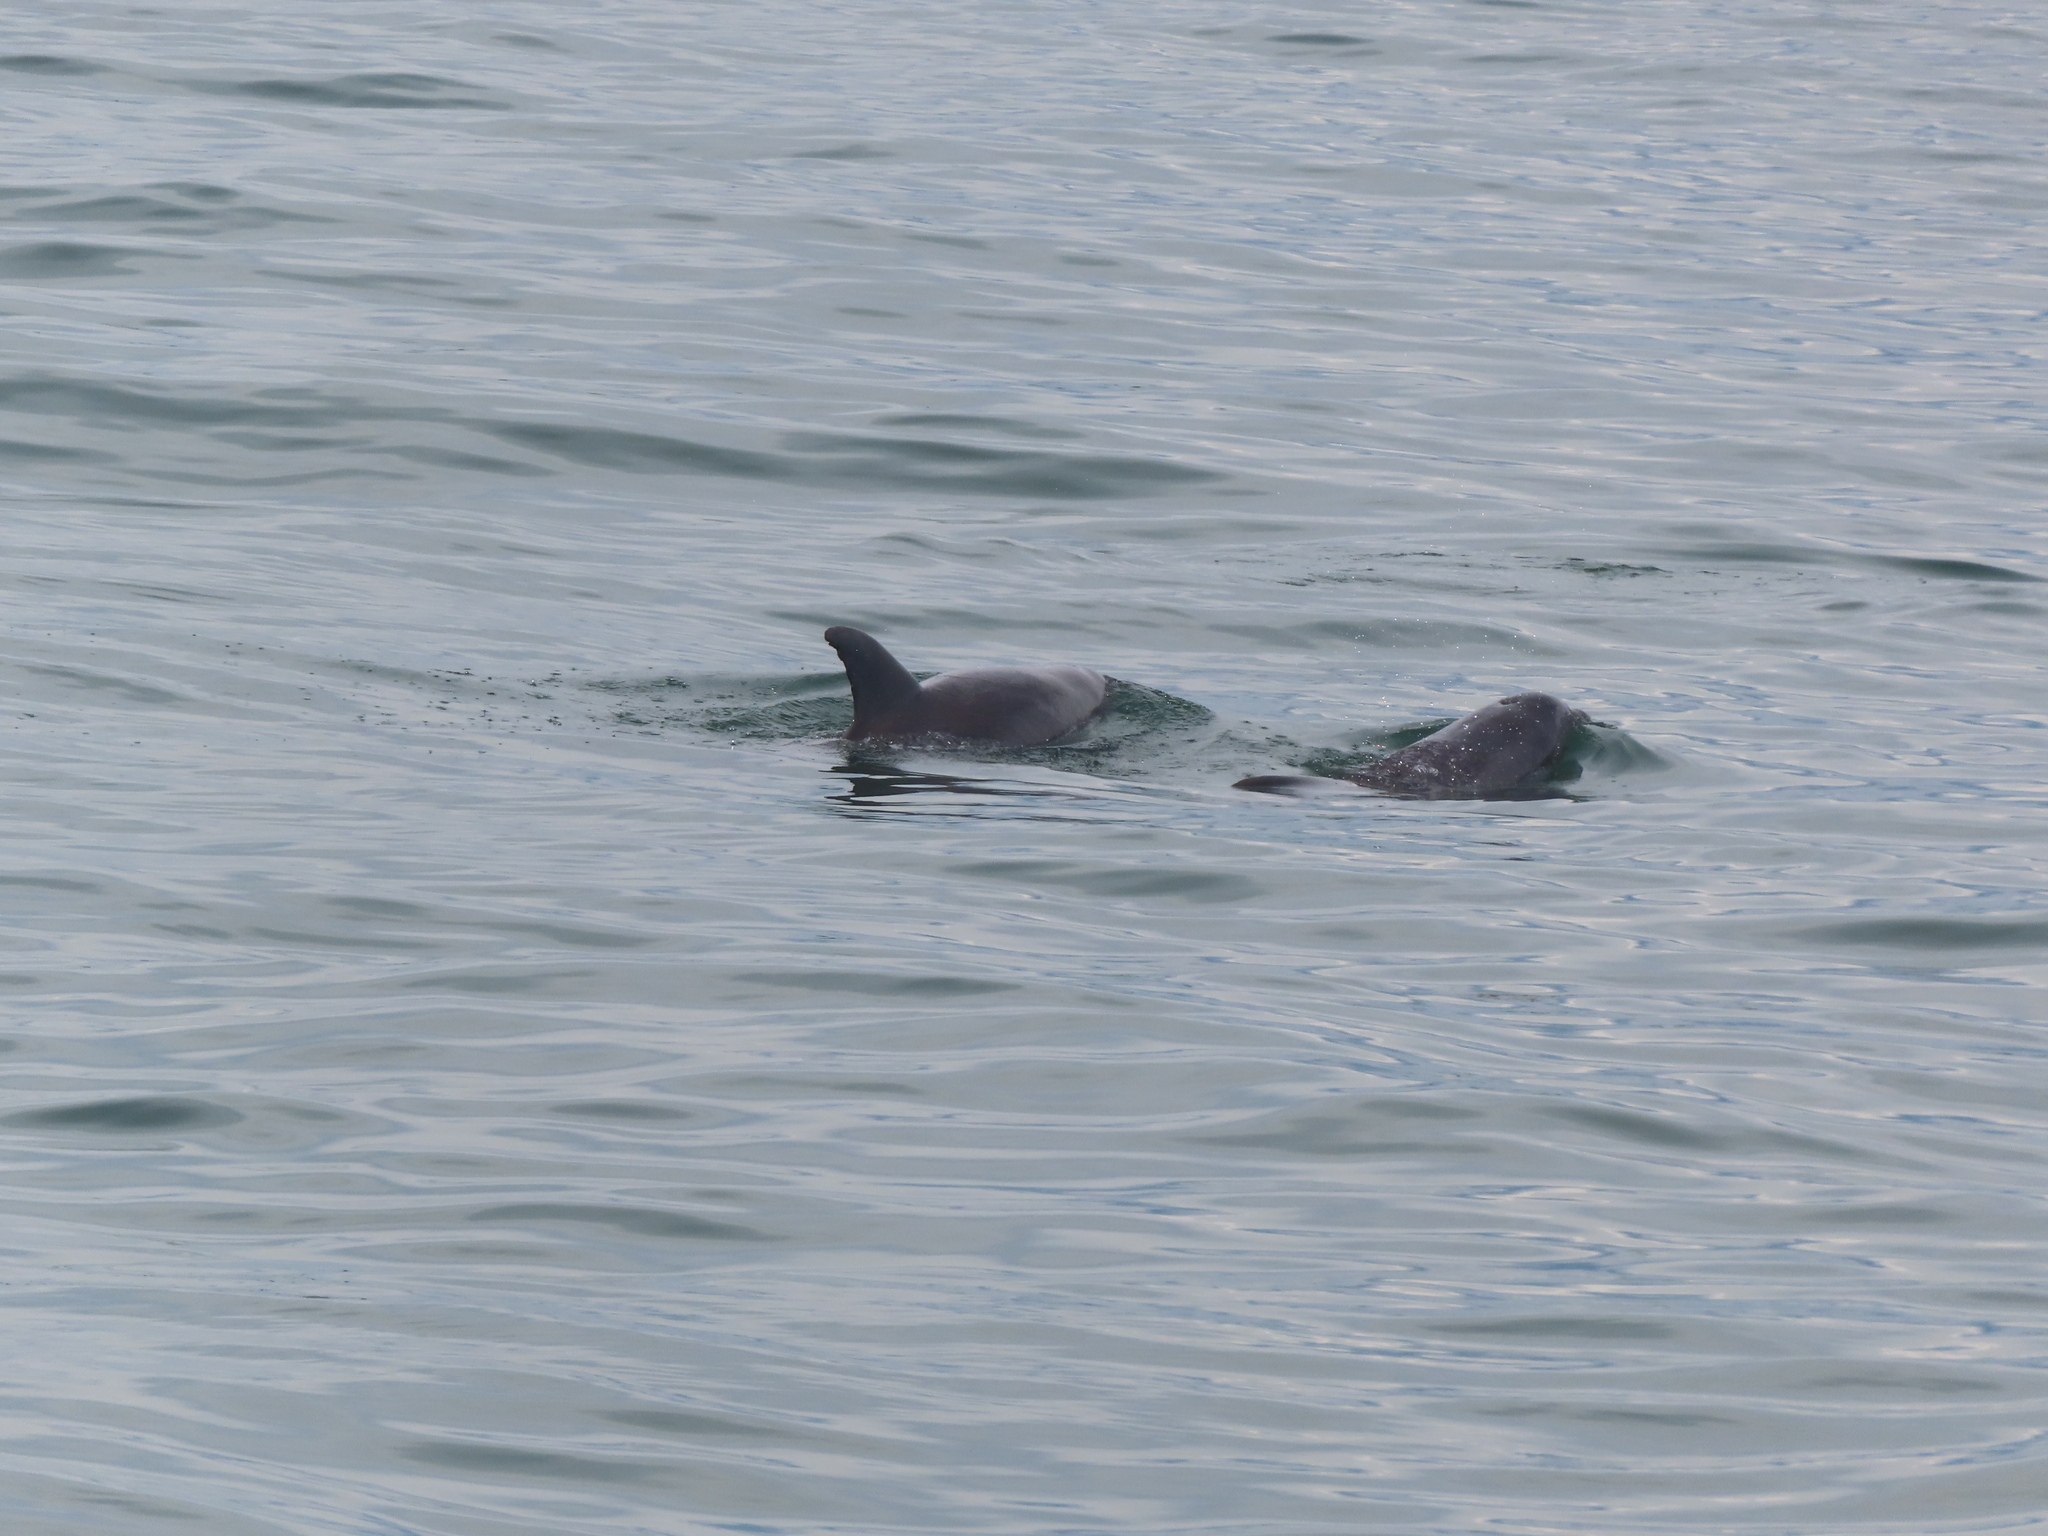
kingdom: Animalia
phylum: Chordata
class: Mammalia
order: Cetacea
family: Delphinidae
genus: Tursiops
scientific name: Tursiops truncatus
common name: Bottlenose dolphin
